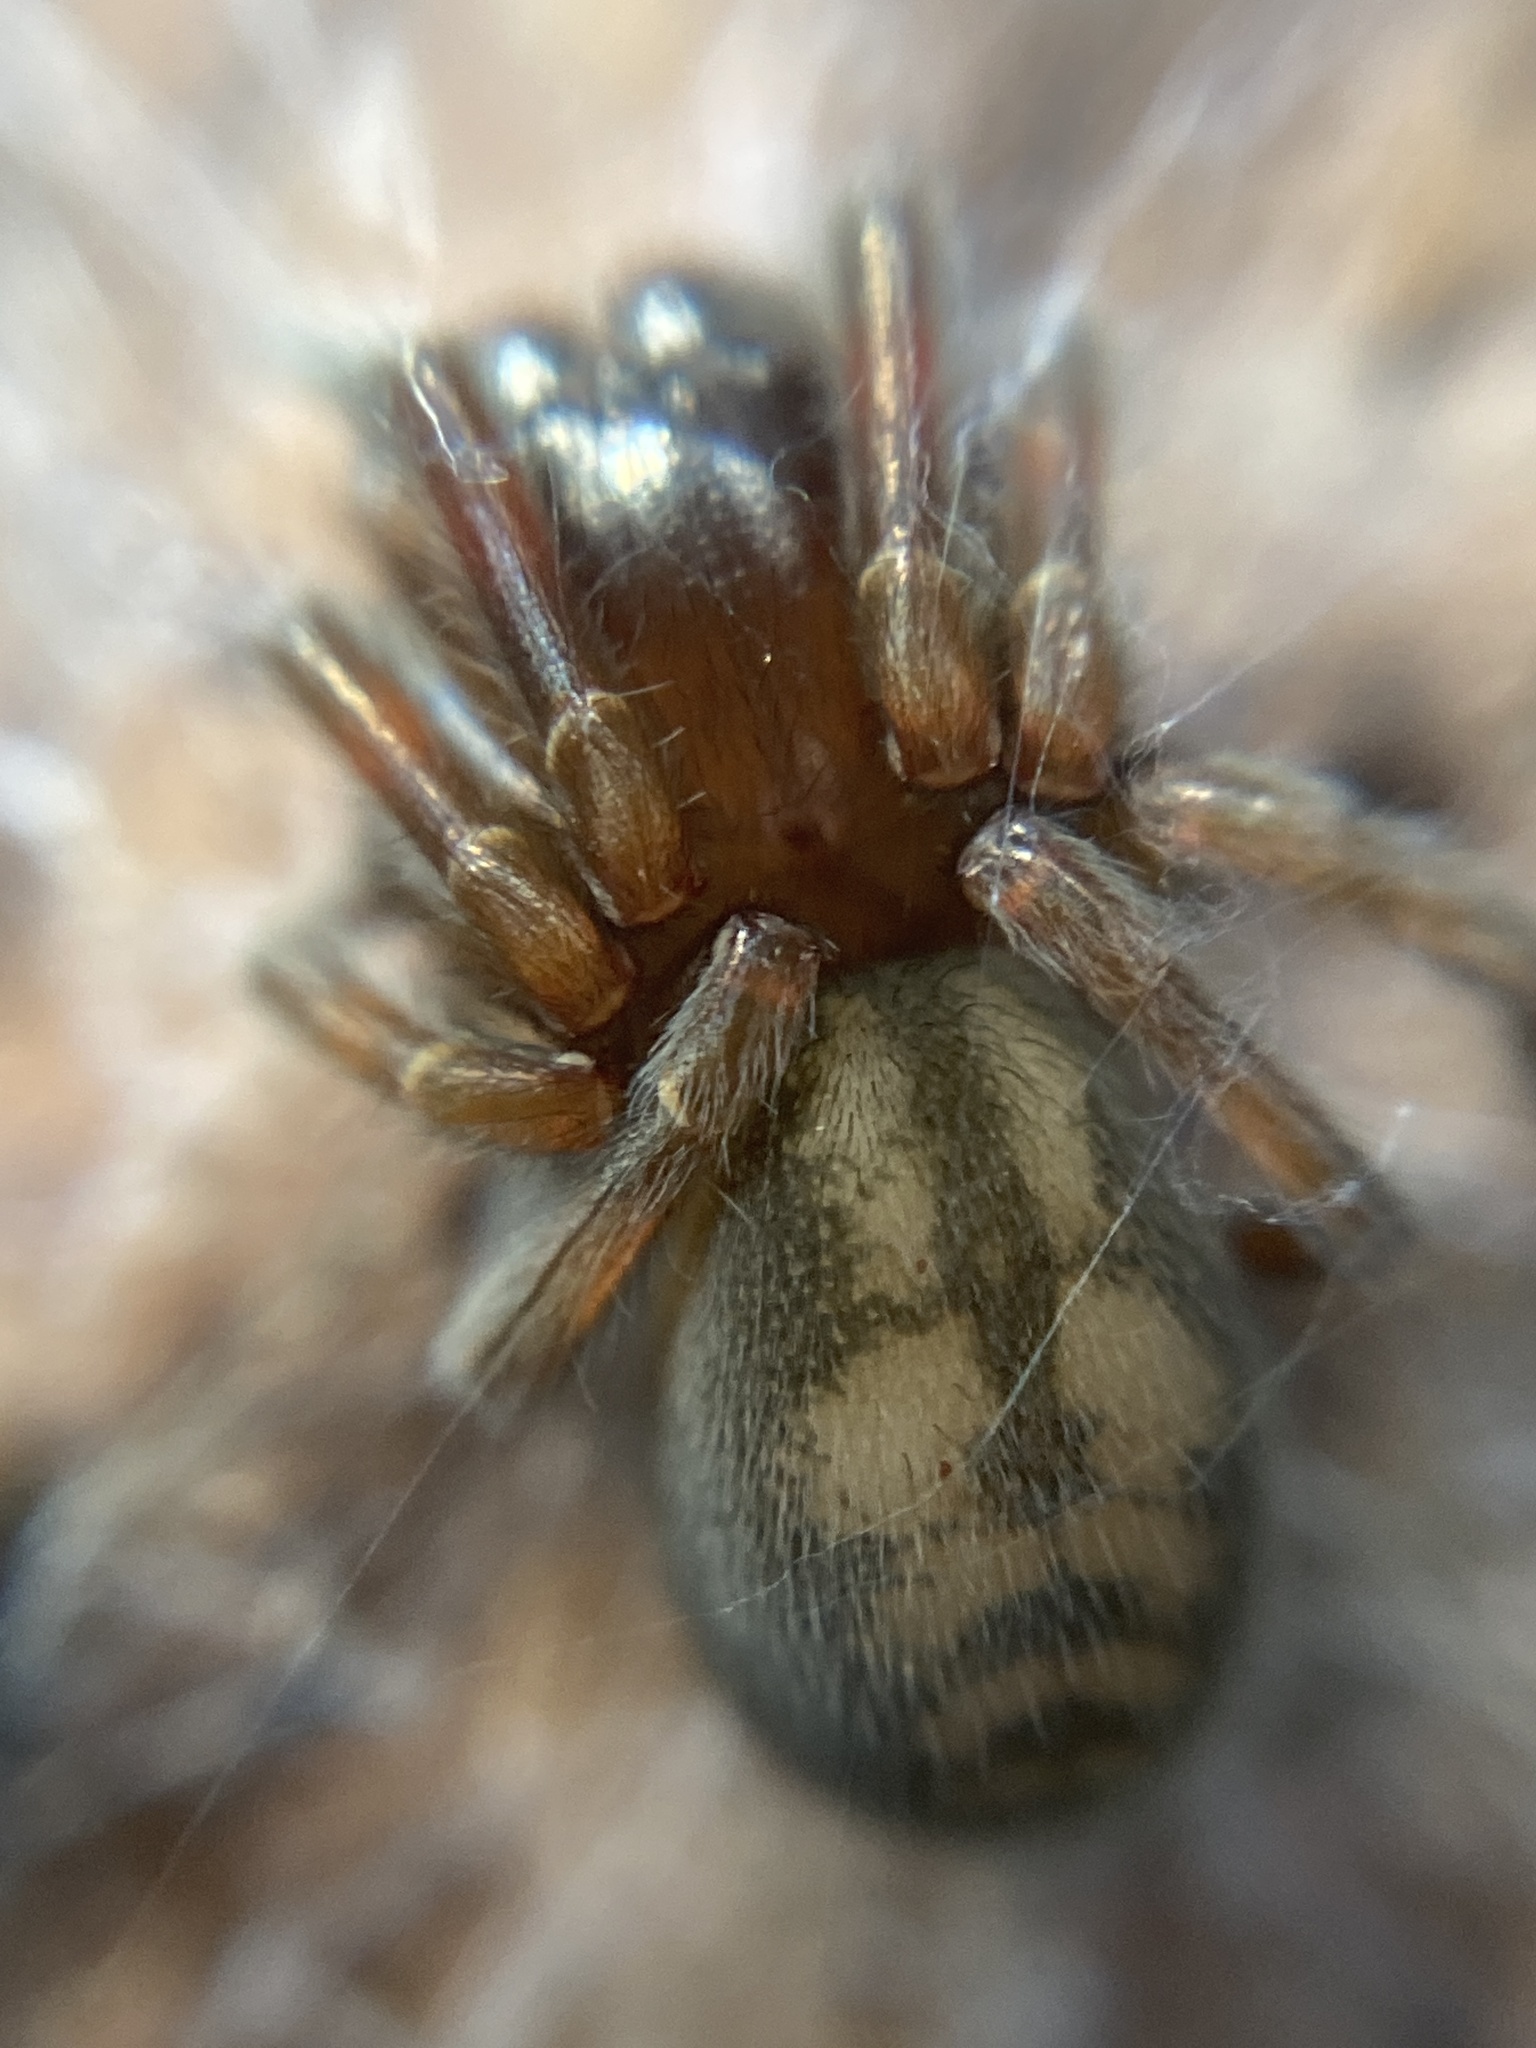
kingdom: Animalia
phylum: Arthropoda
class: Arachnida
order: Araneae
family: Amaurobiidae
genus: Callobius
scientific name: Callobius claustrarius
